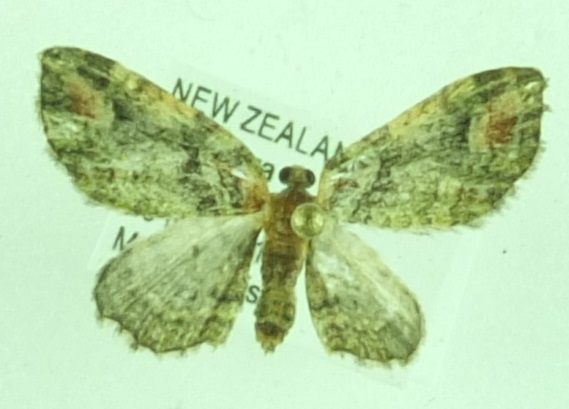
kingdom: Animalia
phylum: Arthropoda
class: Insecta
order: Lepidoptera
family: Geometridae
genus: Idaea
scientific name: Idaea mutanda
